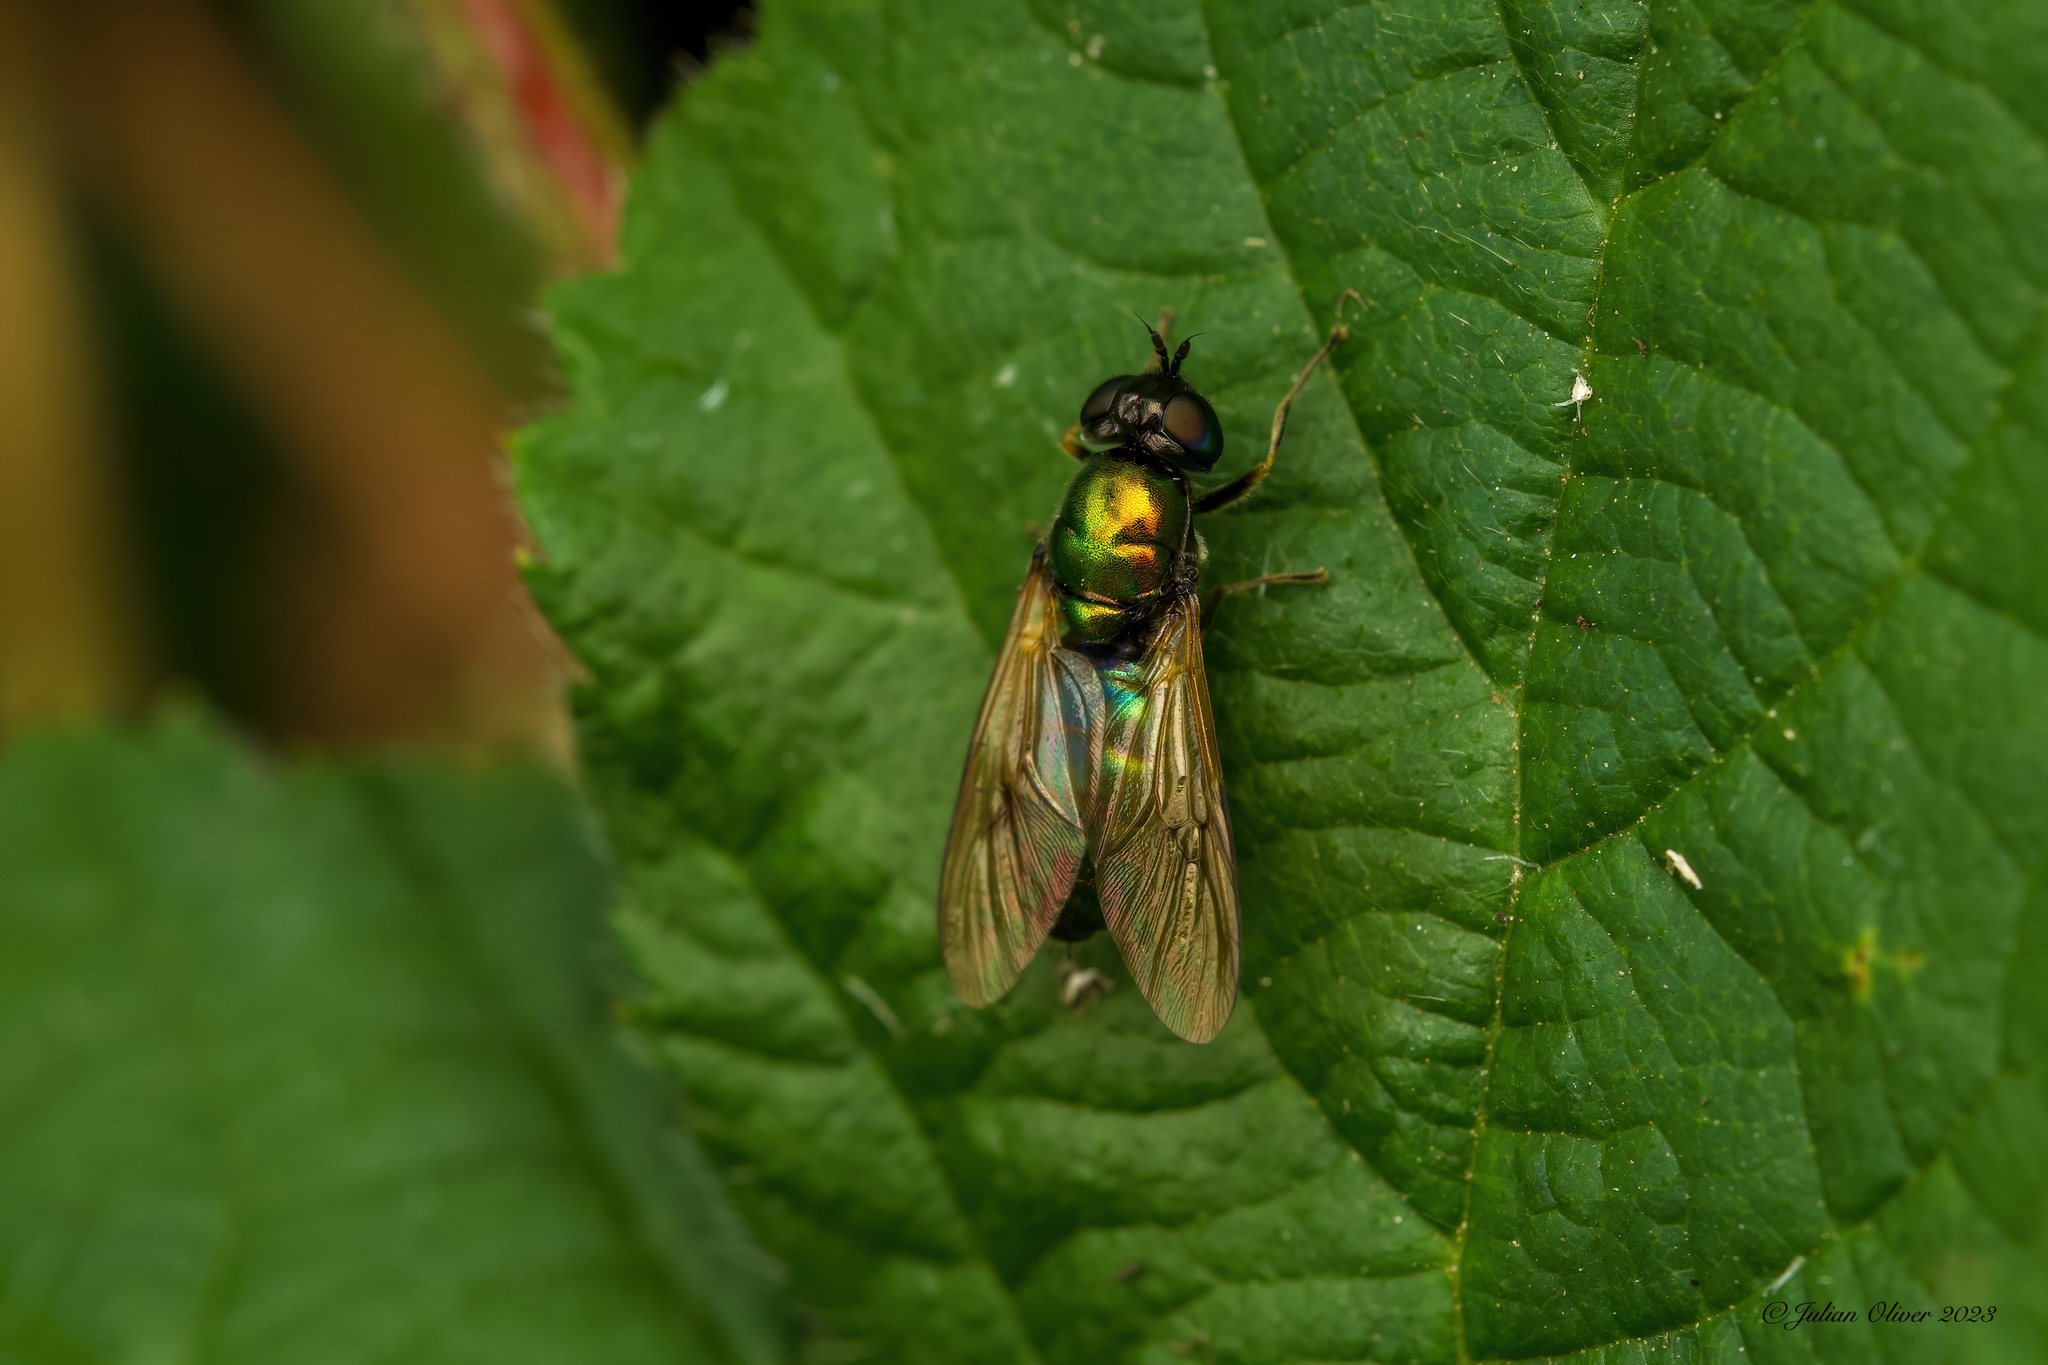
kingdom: Animalia
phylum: Arthropoda
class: Insecta
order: Diptera
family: Stratiomyidae
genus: Chloromyia
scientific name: Chloromyia formosa
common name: Soldier fly
